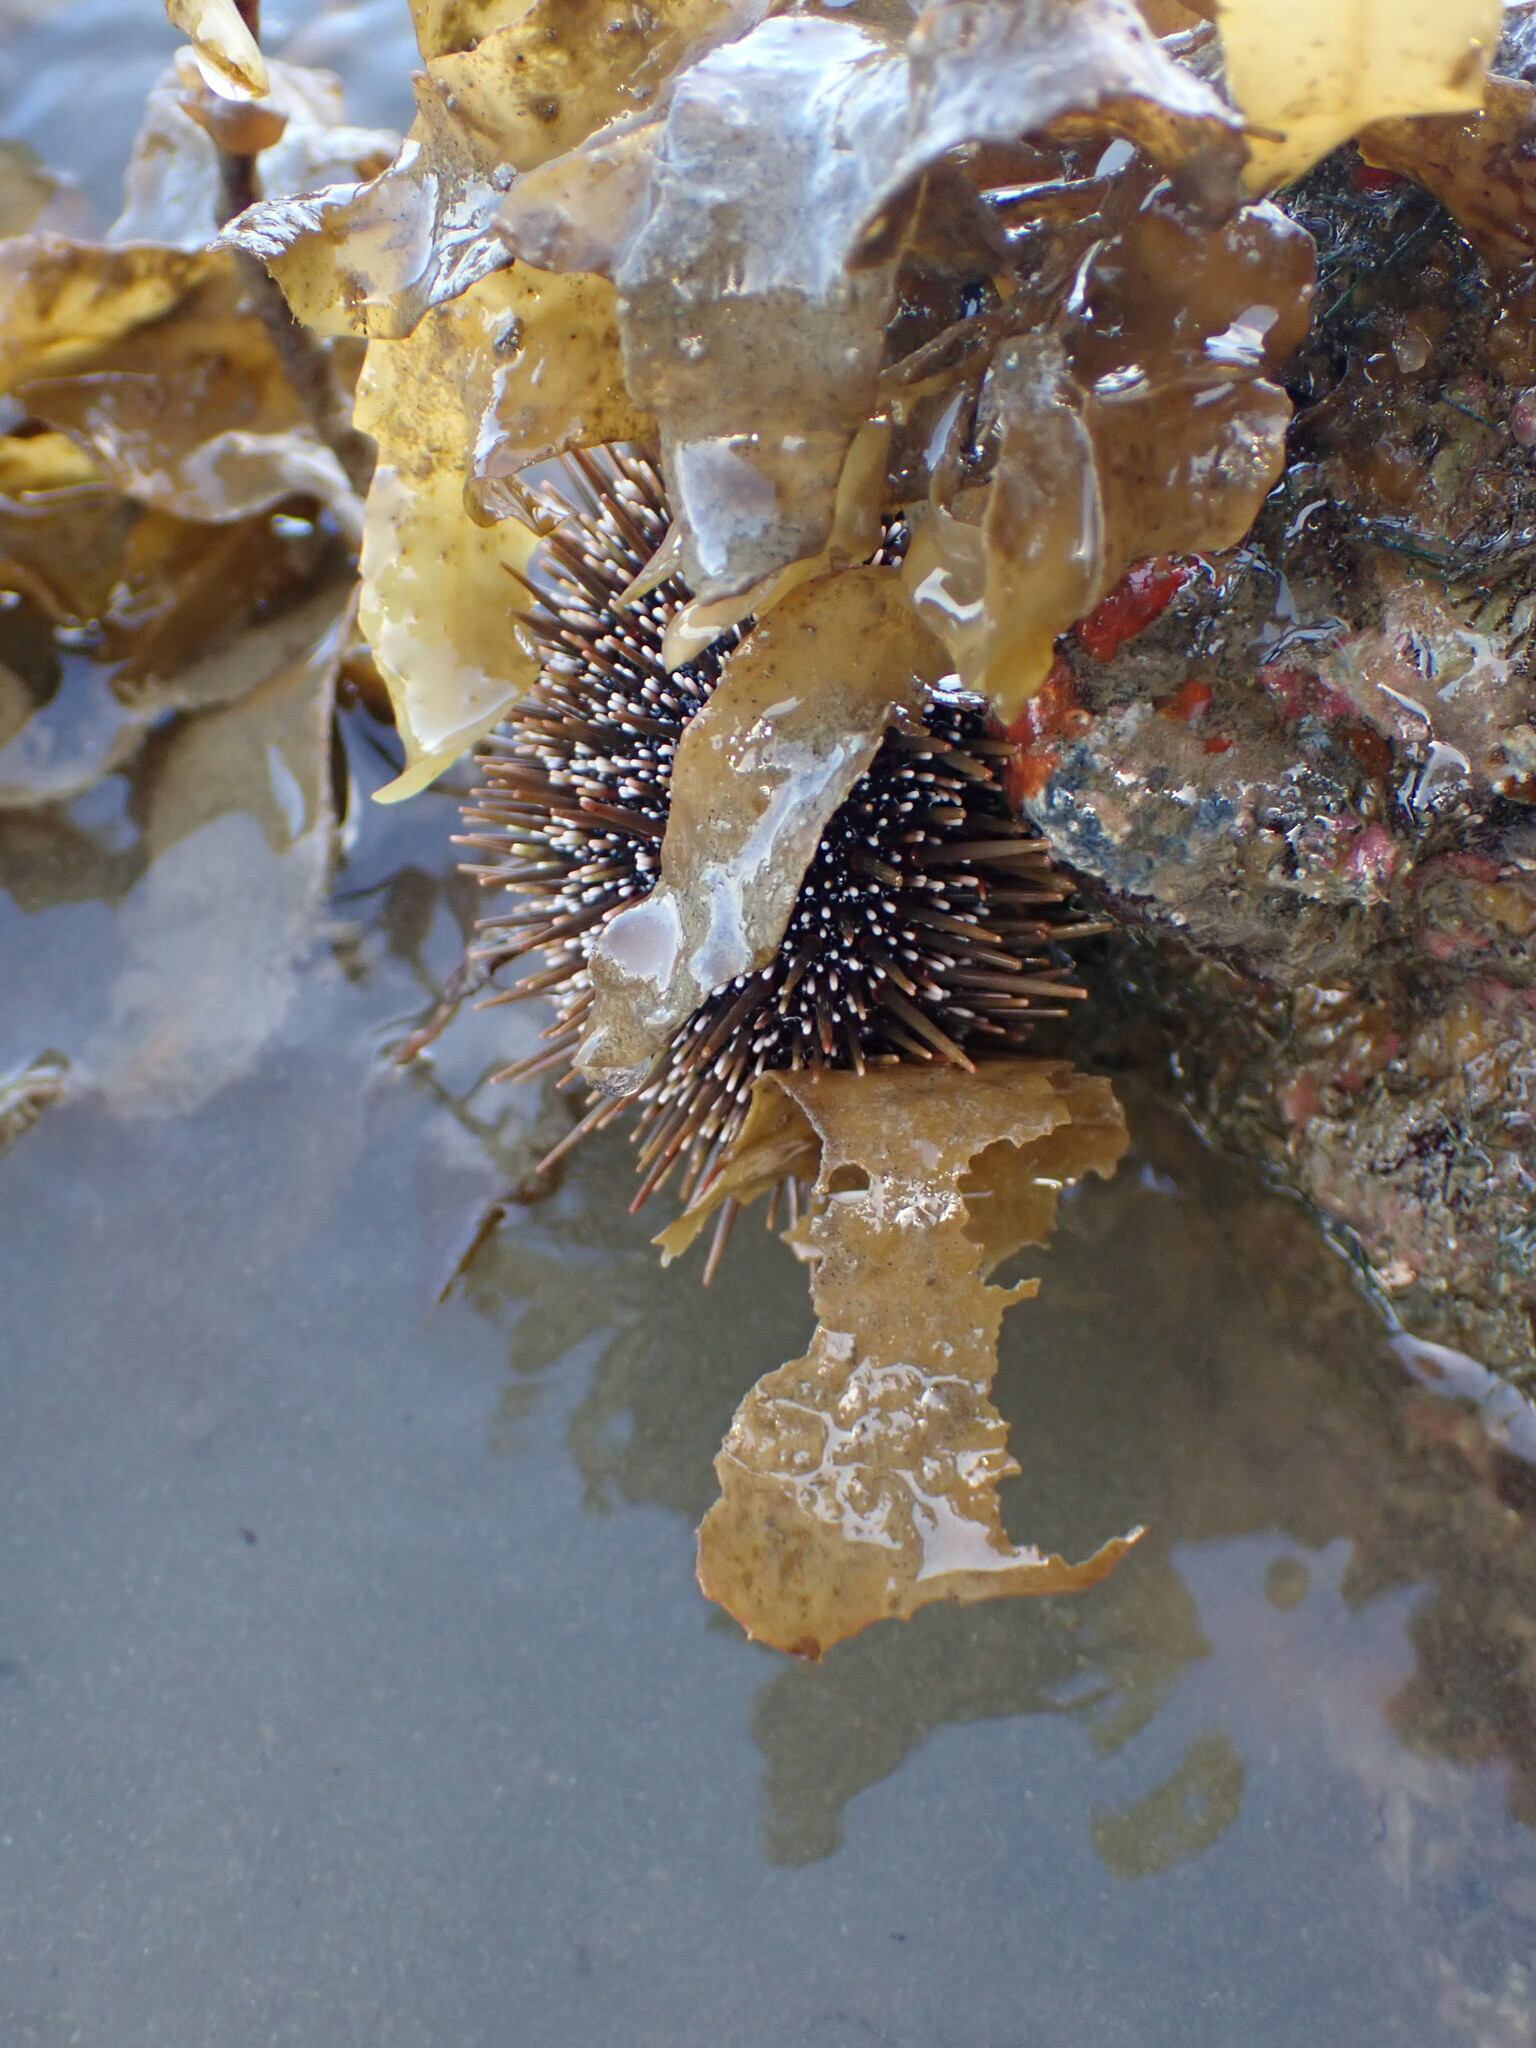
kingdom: Animalia
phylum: Echinodermata
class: Echinoidea
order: Camarodonta
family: Echinometridae
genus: Evechinus
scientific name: Evechinus chloroticus
